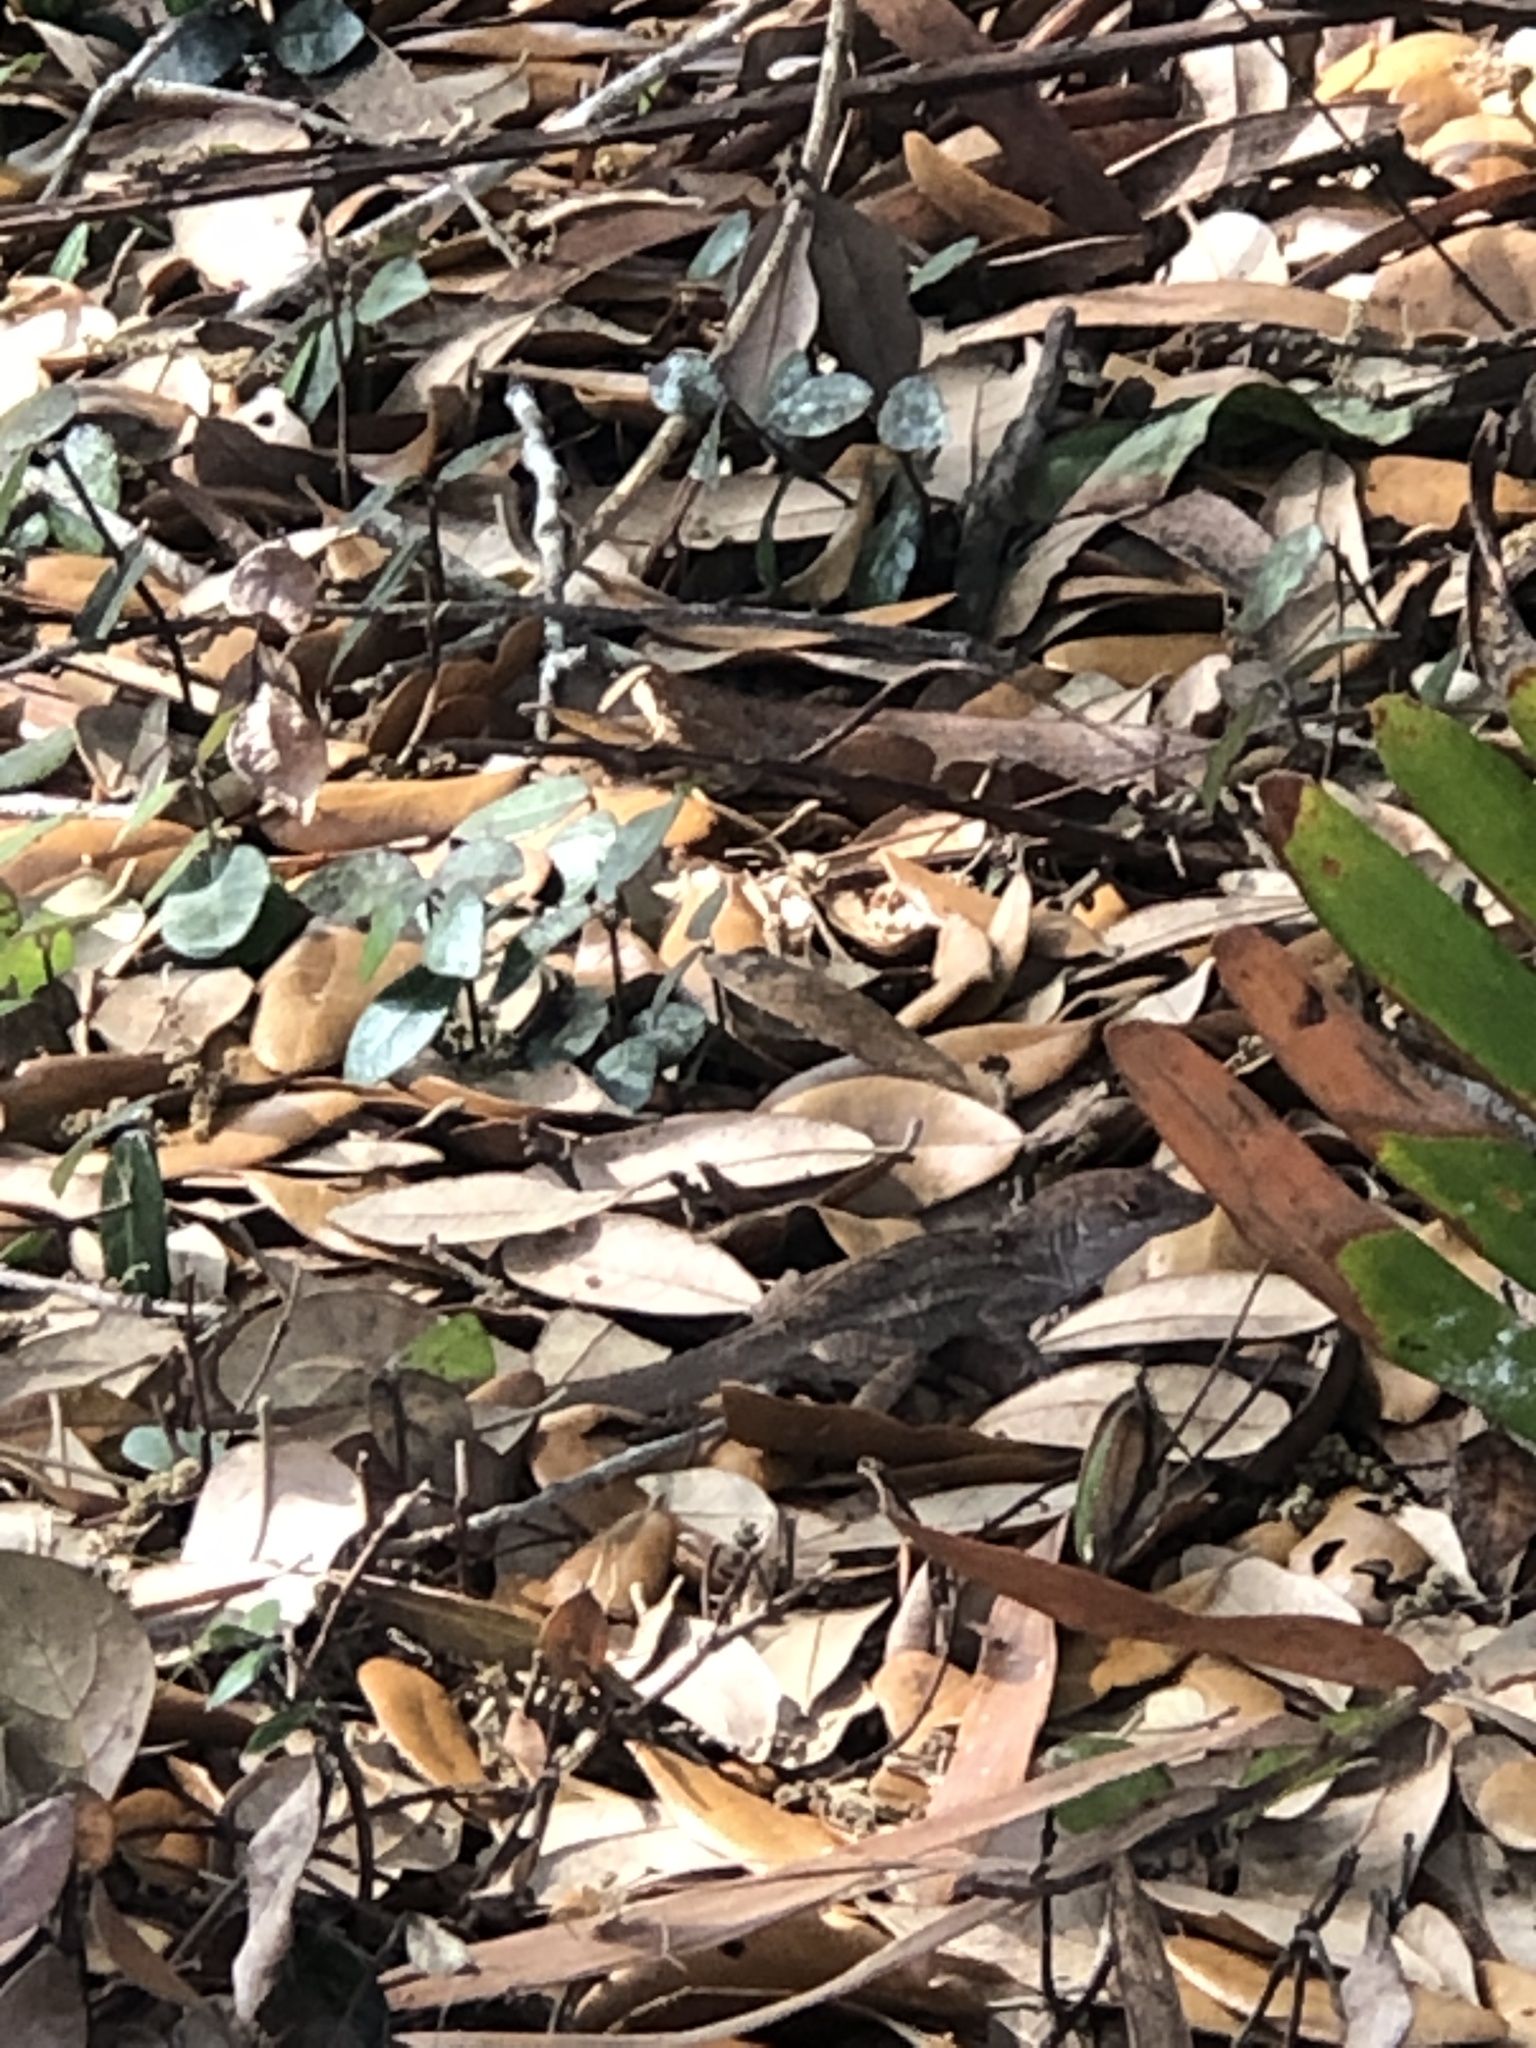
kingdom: Animalia
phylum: Chordata
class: Squamata
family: Dactyloidae
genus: Anolis
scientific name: Anolis sagrei
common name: Brown anole
